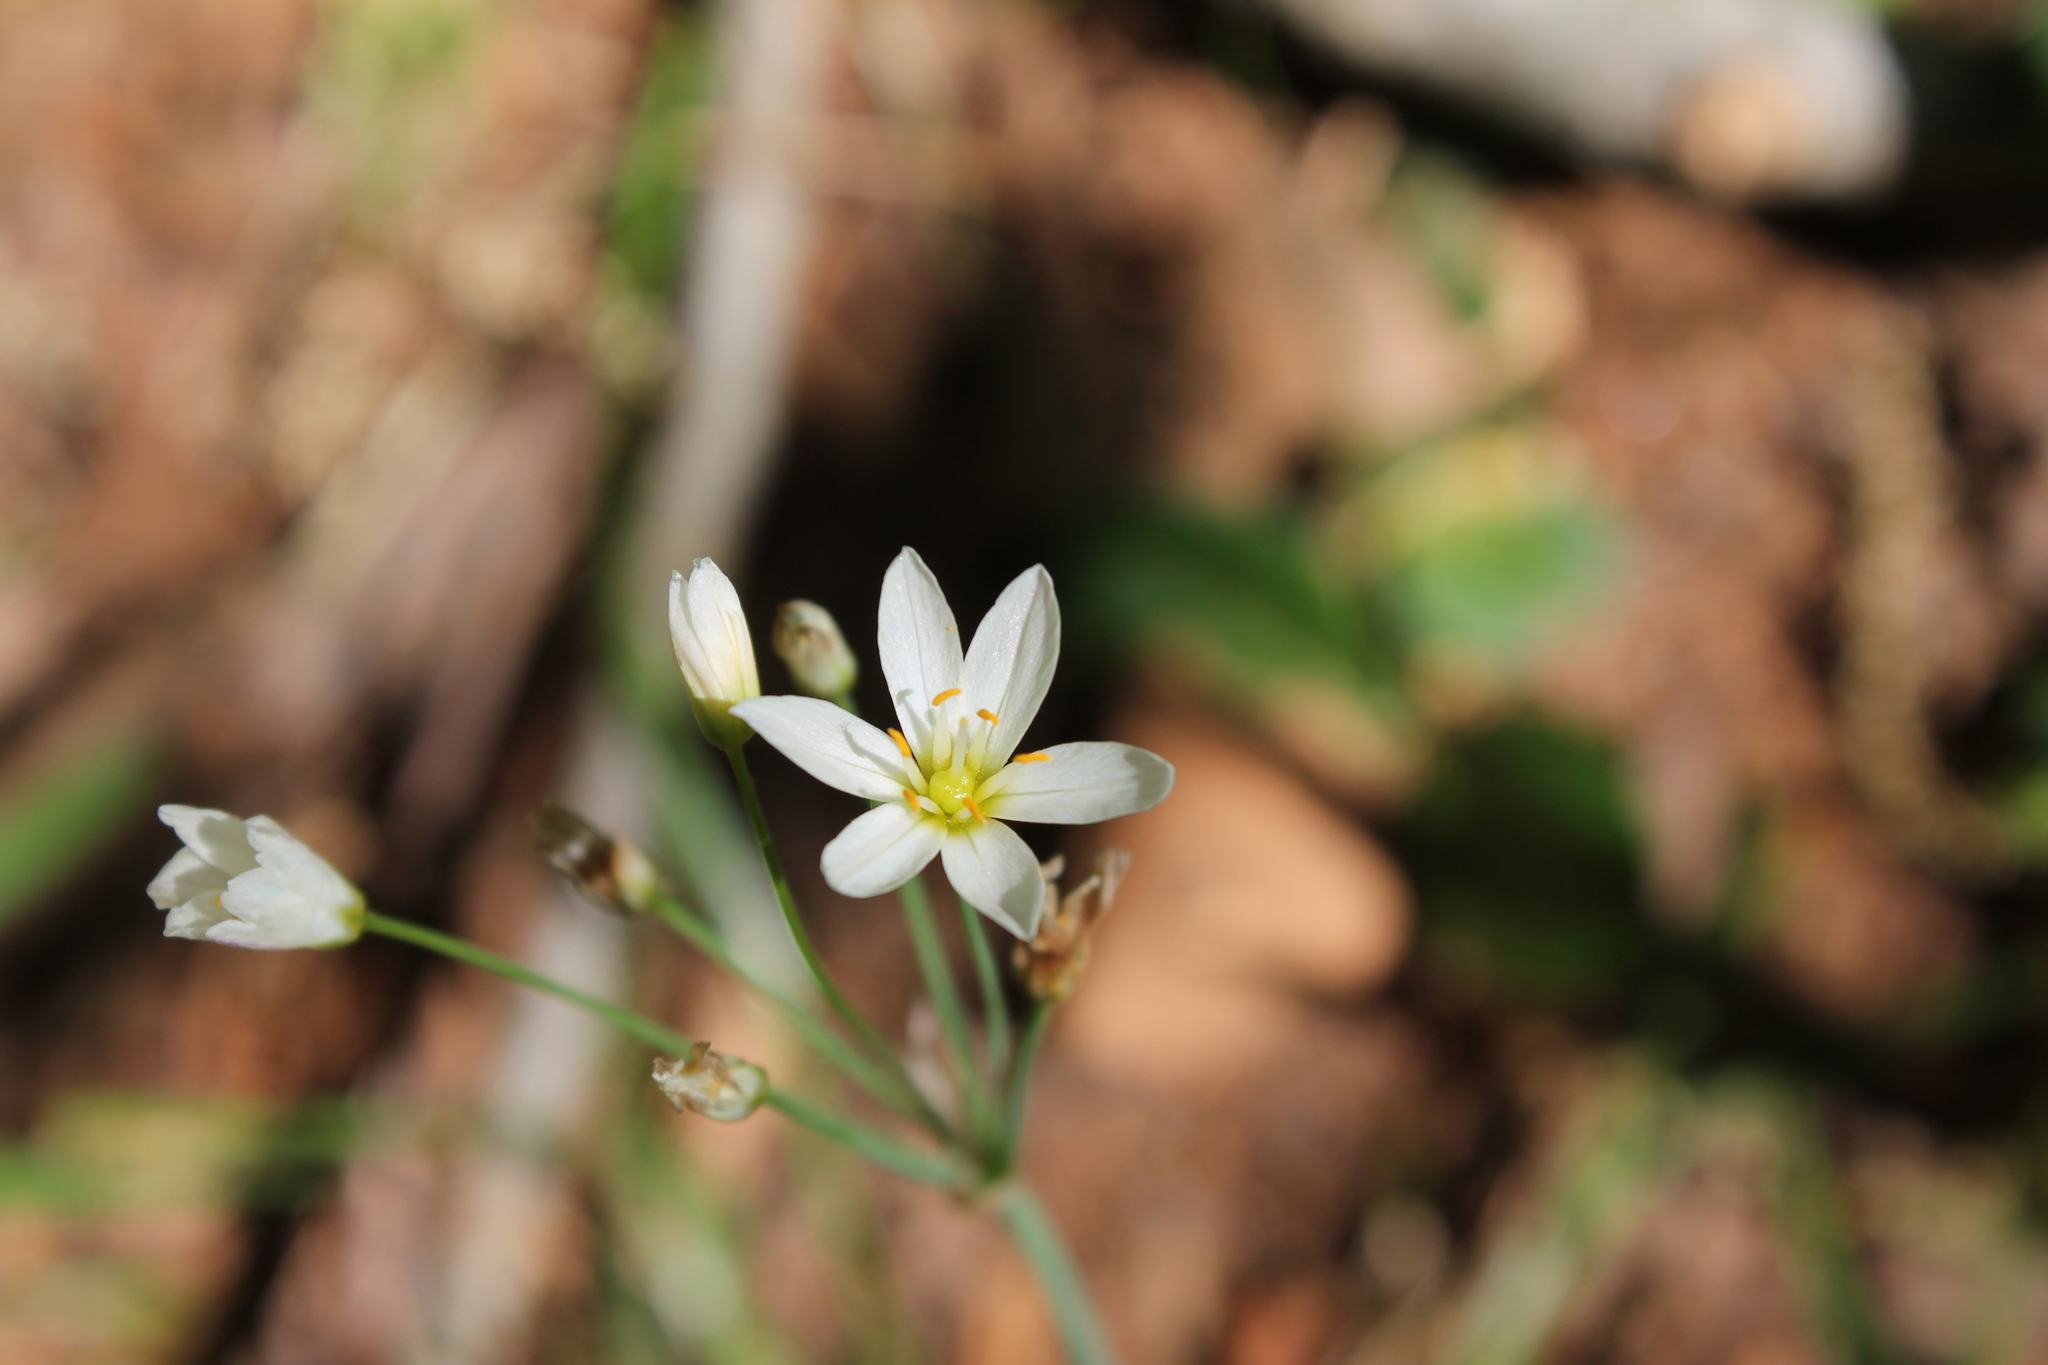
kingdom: Plantae
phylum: Tracheophyta
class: Liliopsida
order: Asparagales
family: Amaryllidaceae
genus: Nothoscordum
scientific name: Nothoscordum bivalve
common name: Crow-poison
